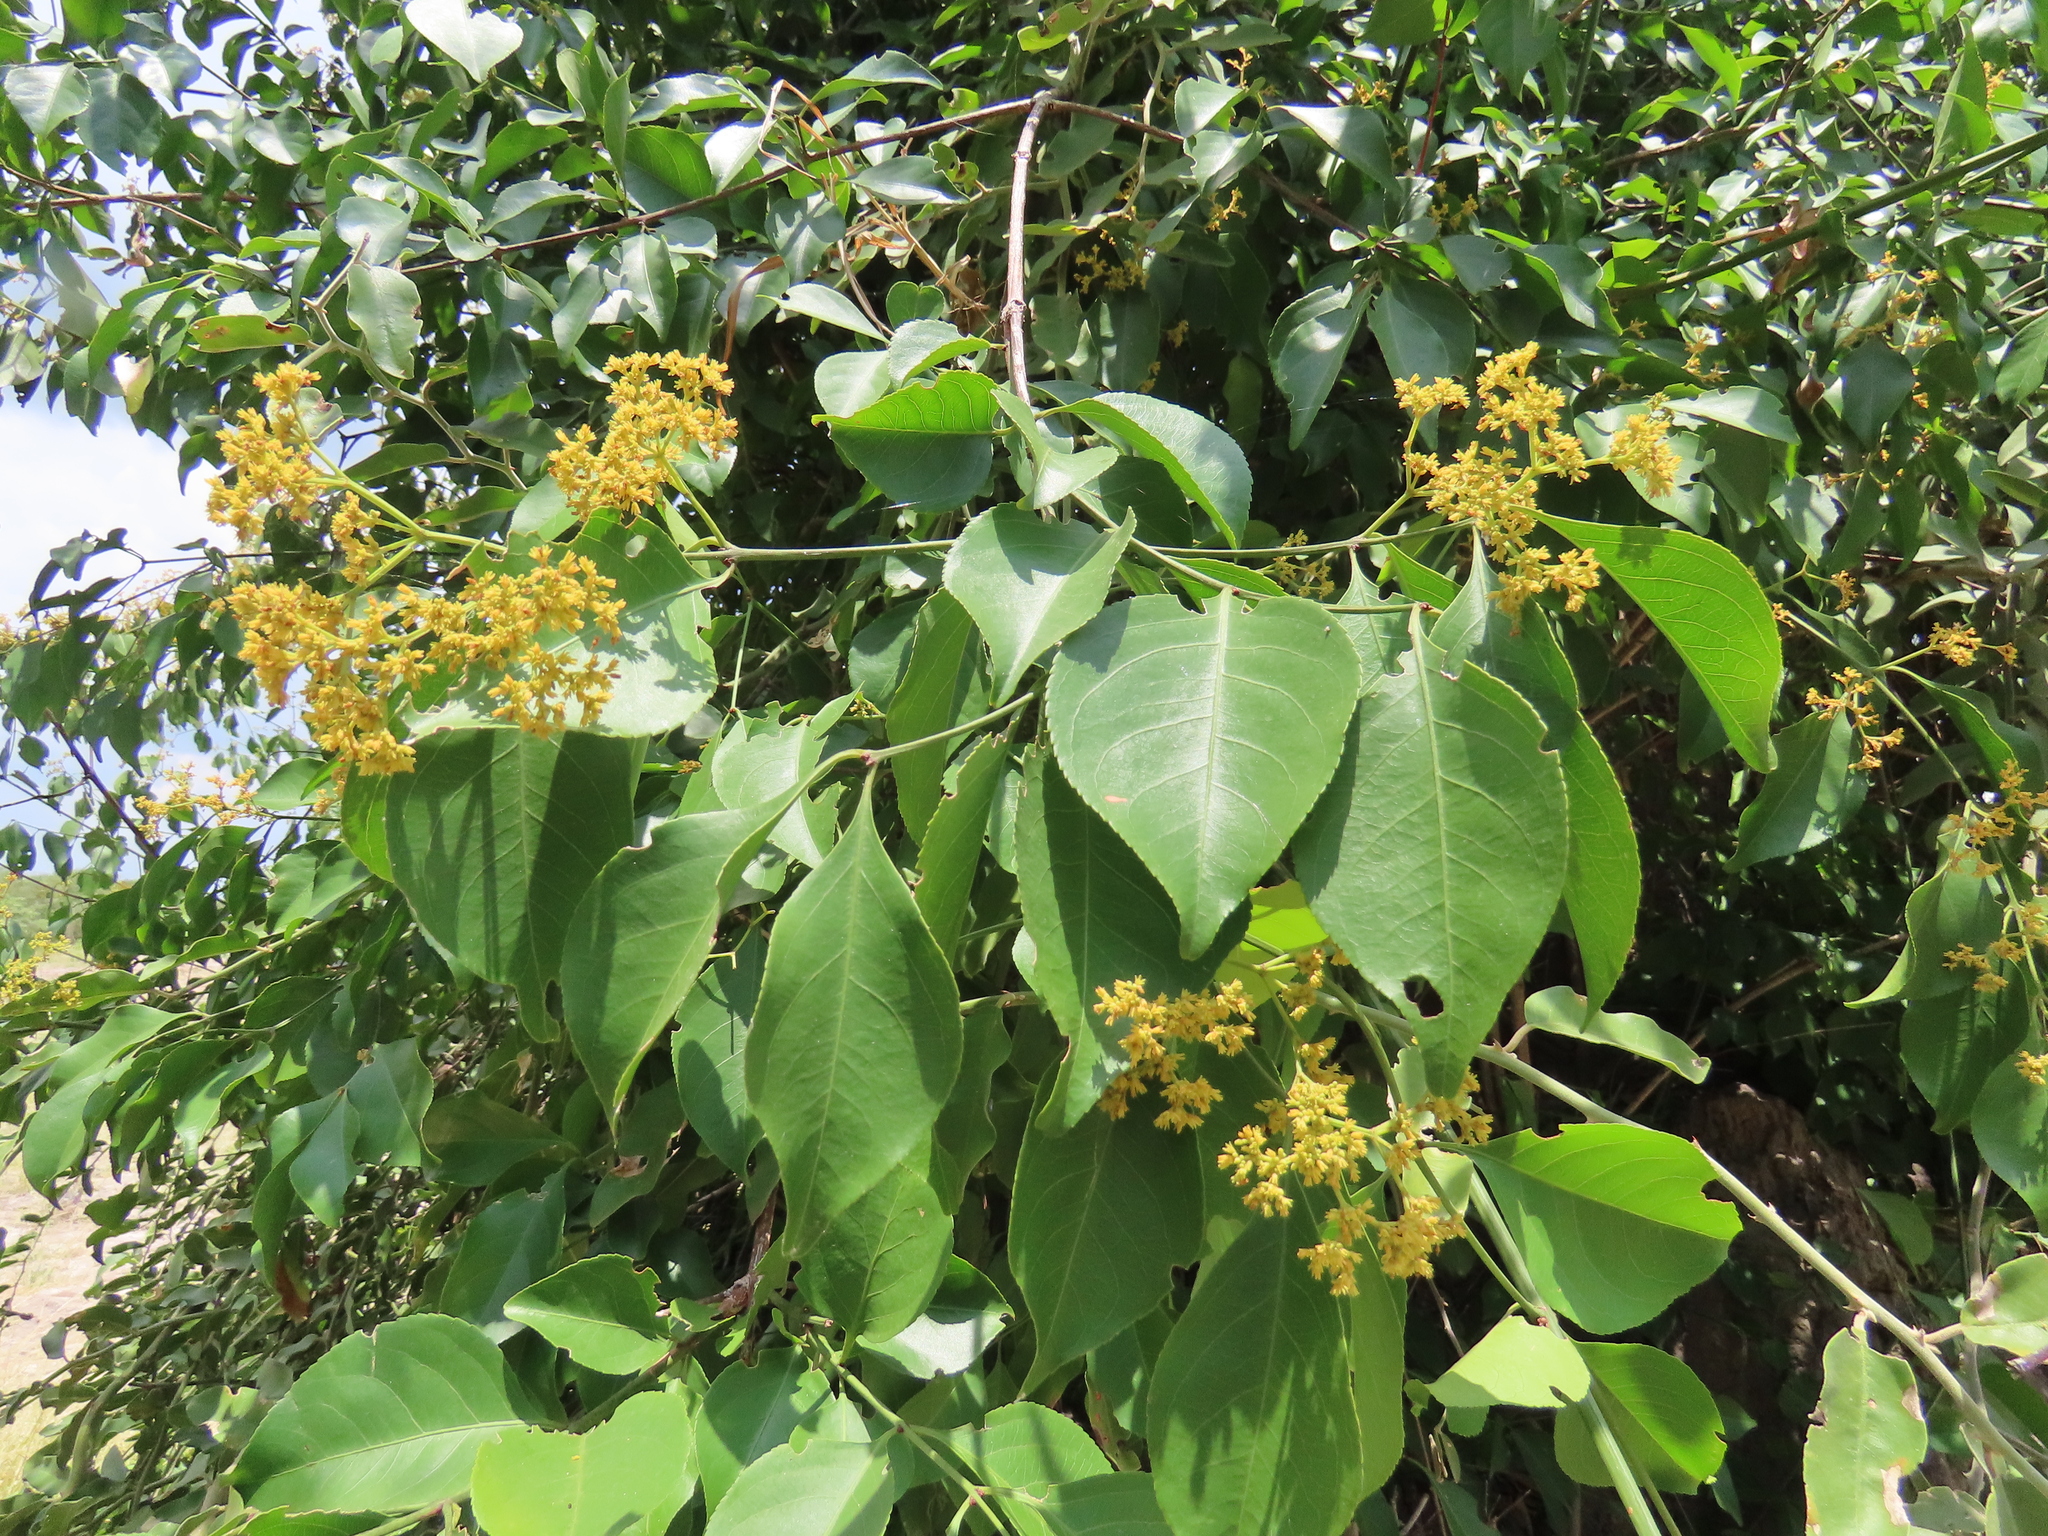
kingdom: Plantae
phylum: Tracheophyta
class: Magnoliopsida
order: Celastrales
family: Celastraceae
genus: Reissantia
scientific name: Reissantia indica
